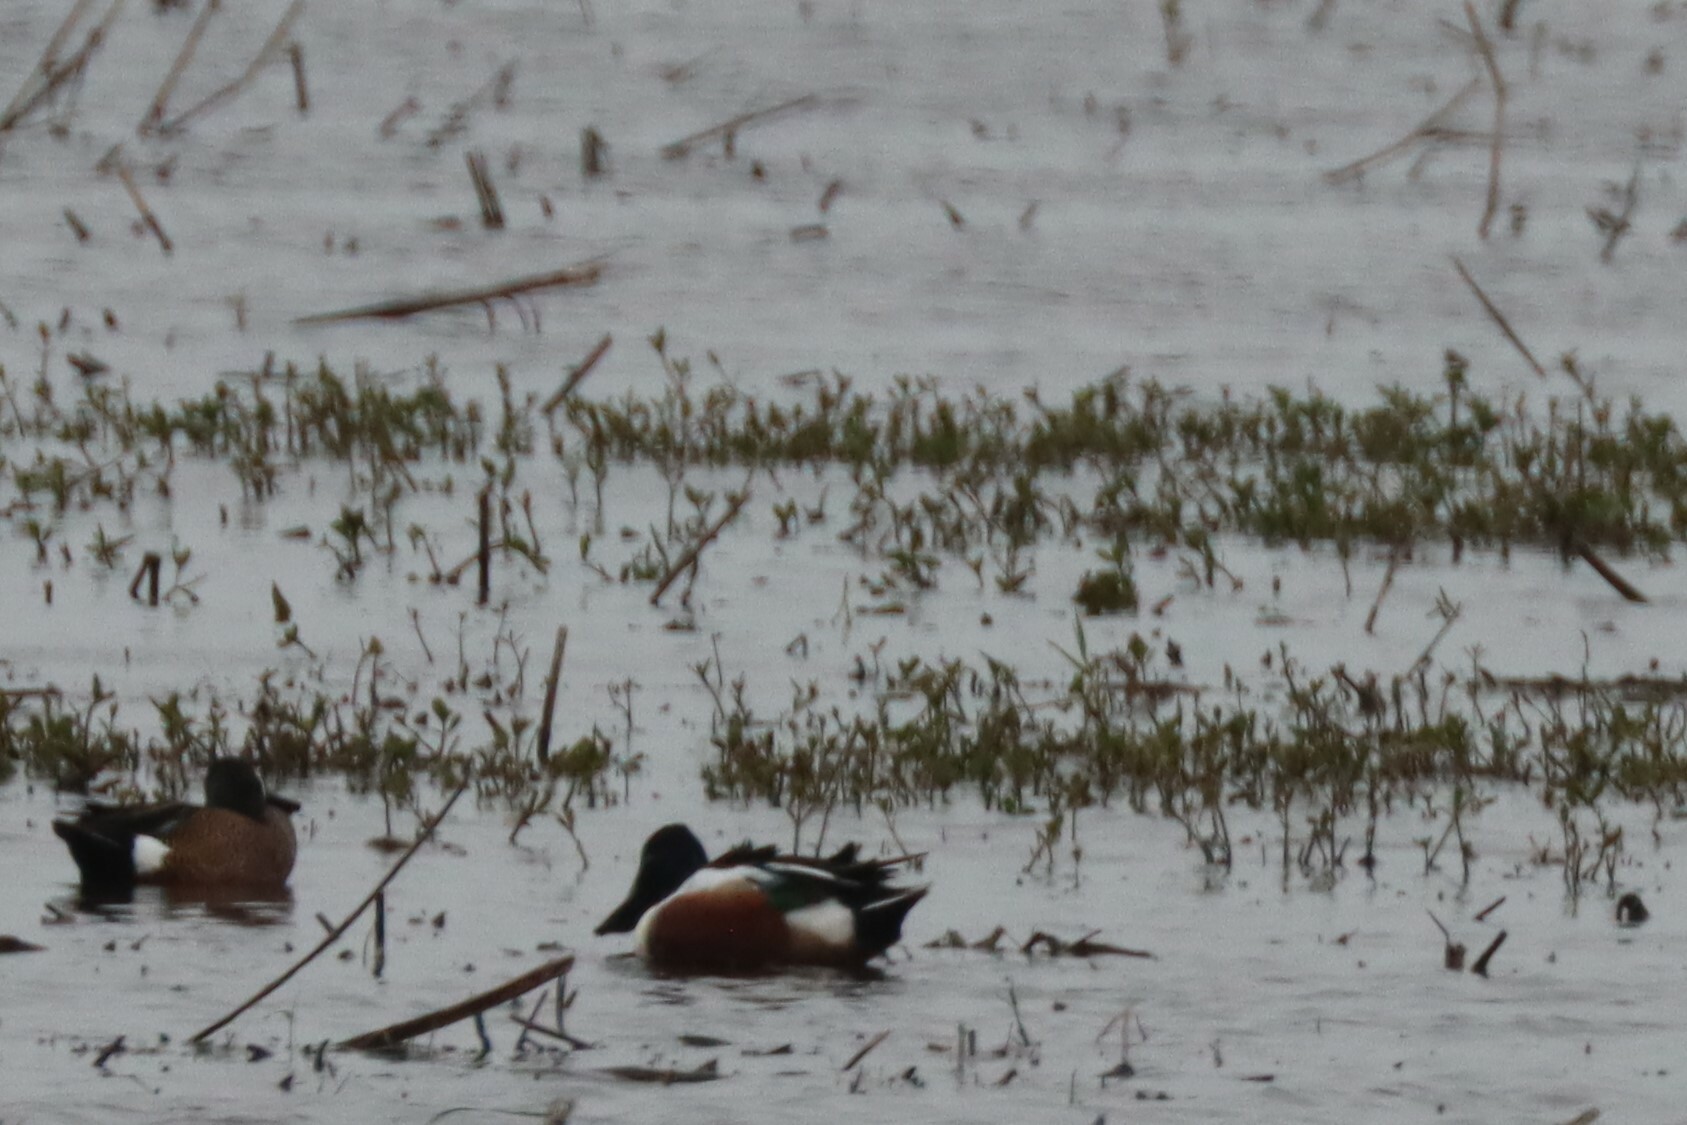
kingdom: Animalia
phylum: Chordata
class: Aves
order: Anseriformes
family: Anatidae
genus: Spatula
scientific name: Spatula clypeata
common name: Northern shoveler
